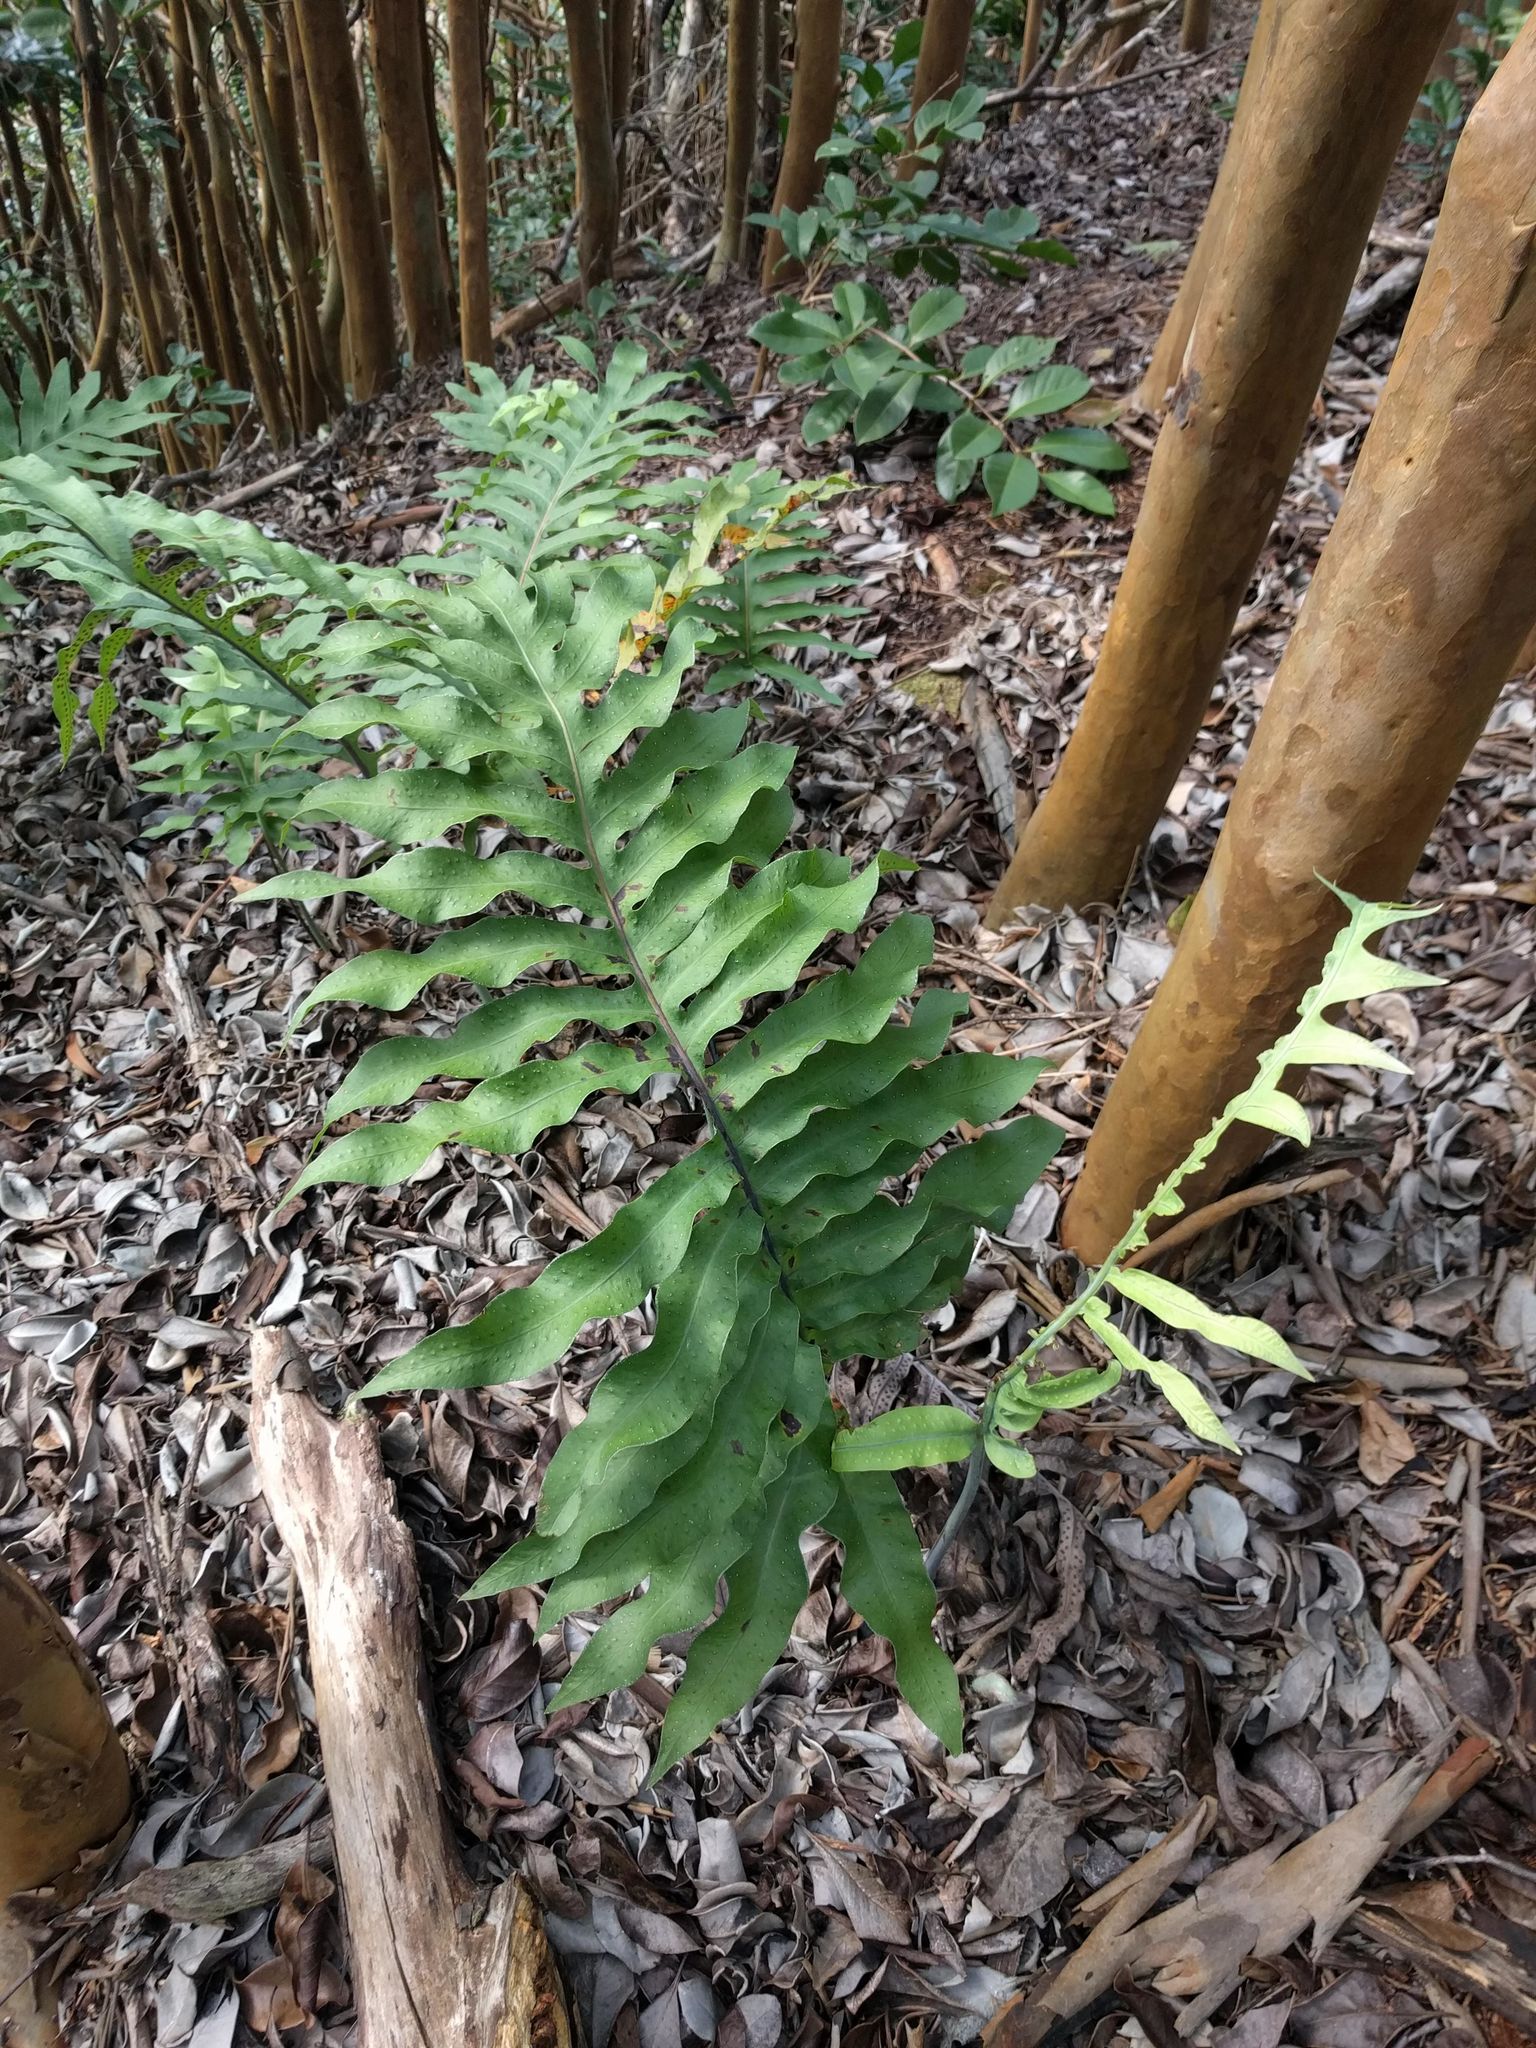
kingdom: Plantae
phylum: Tracheophyta
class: Polypodiopsida
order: Polypodiales
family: Polypodiaceae
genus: Phlebodium
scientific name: Phlebodium aureum
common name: Gold-foot fern
